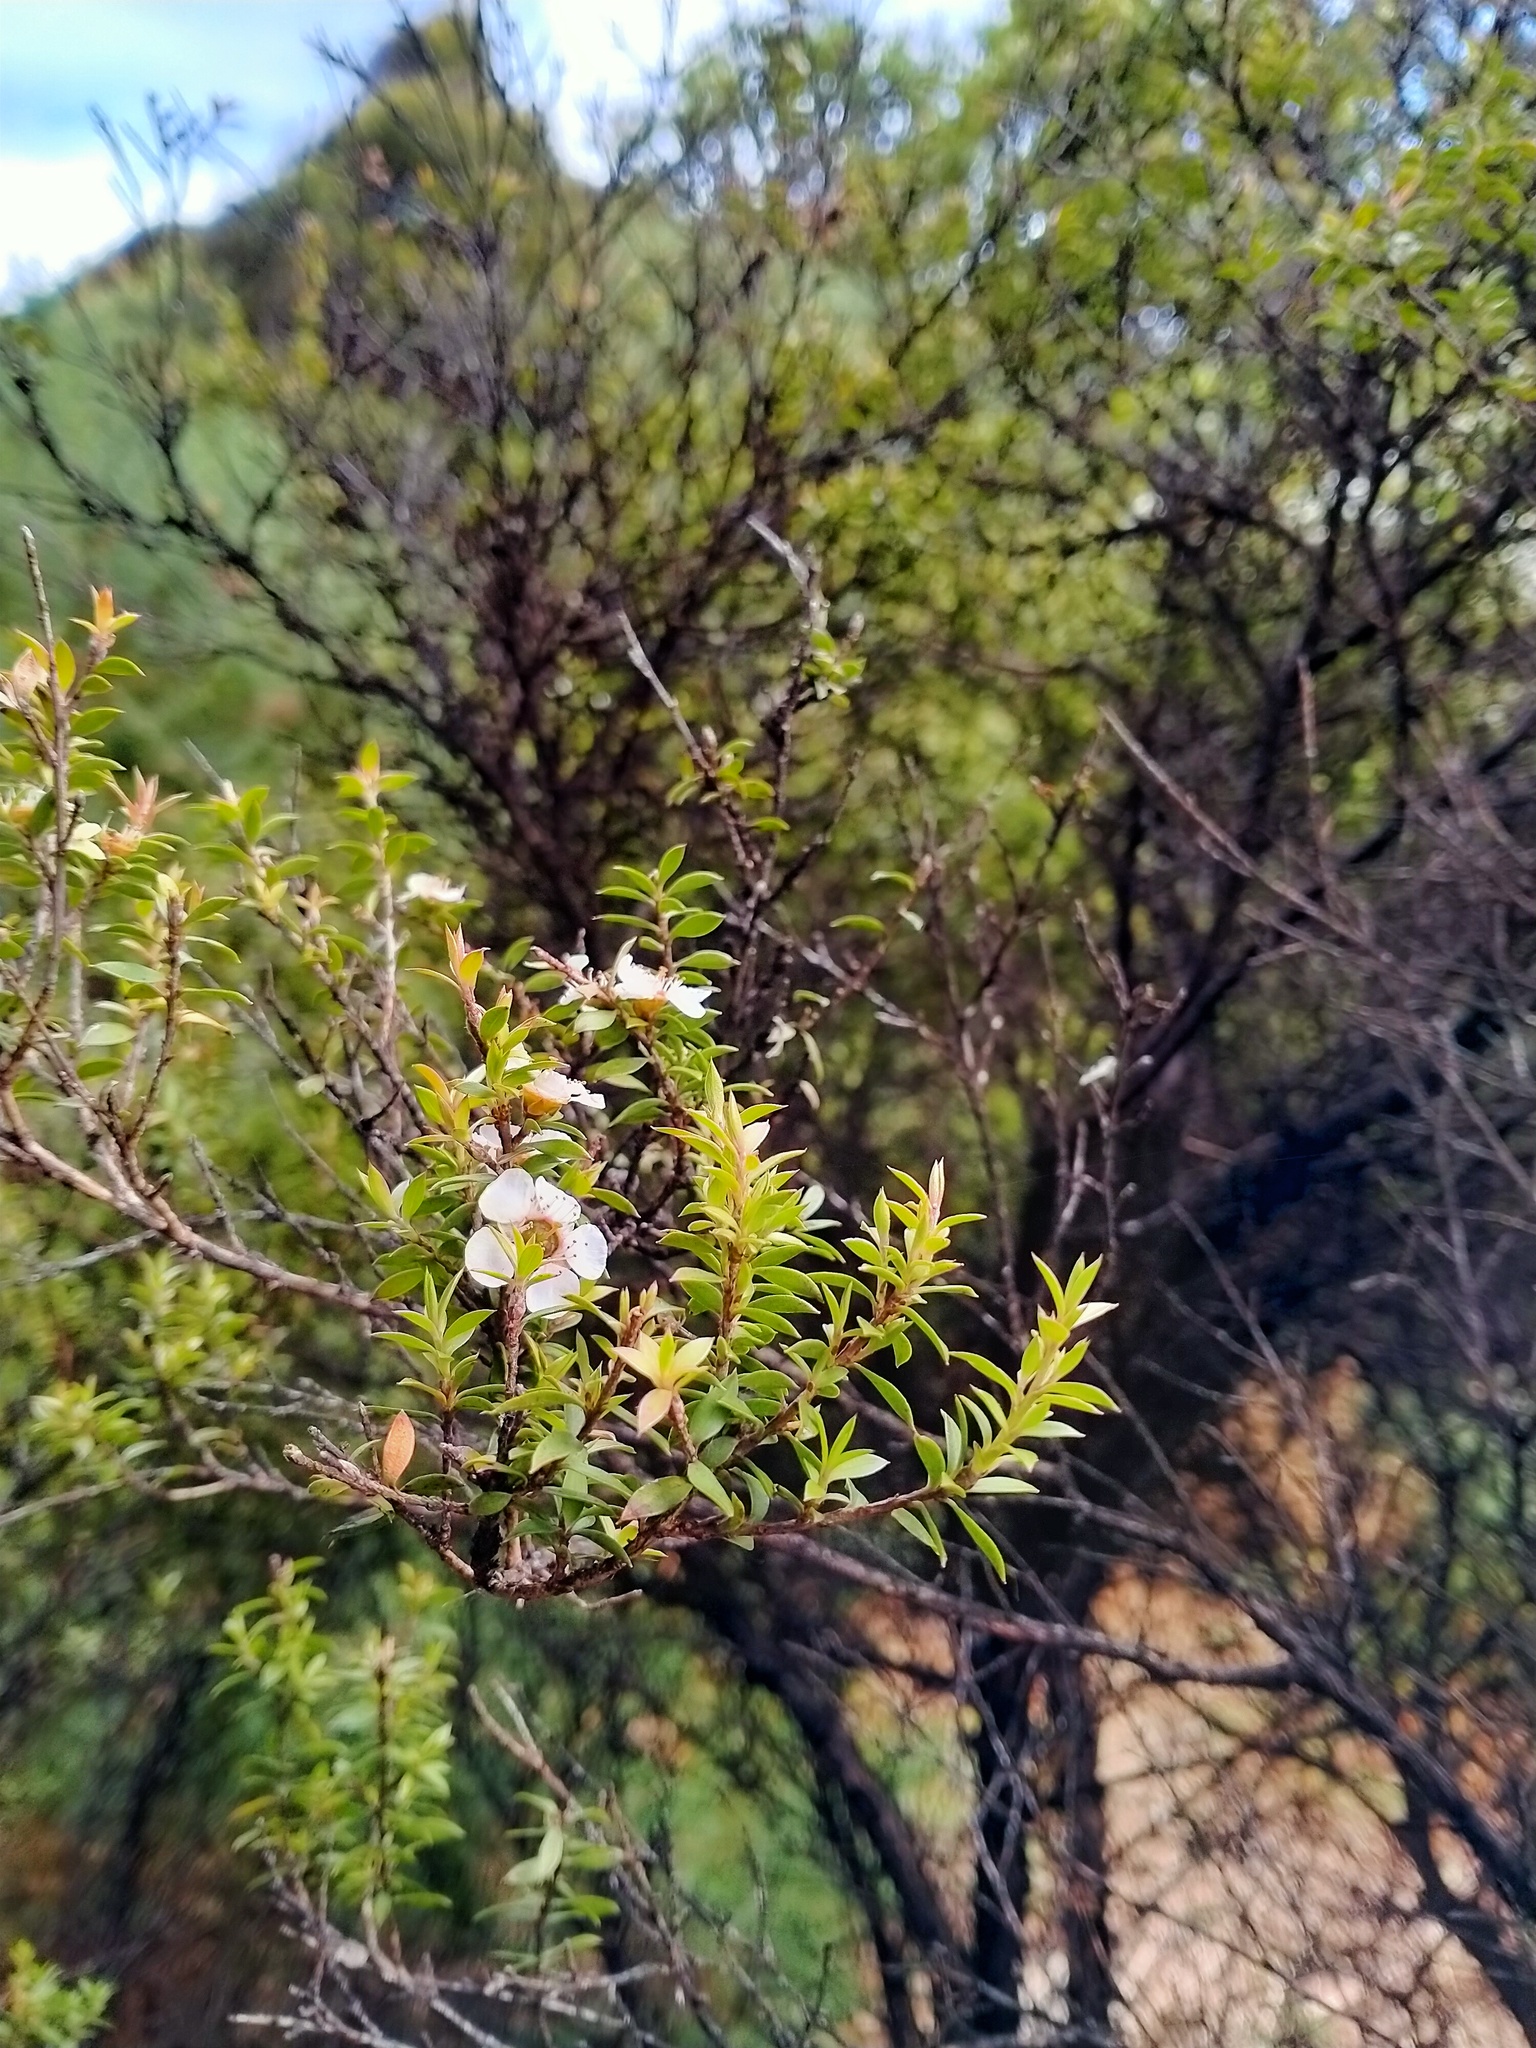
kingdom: Plantae
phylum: Tracheophyta
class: Magnoliopsida
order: Myrtales
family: Myrtaceae
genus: Leptospermum
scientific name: Leptospermum scoparium
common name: Broom tea-tree
